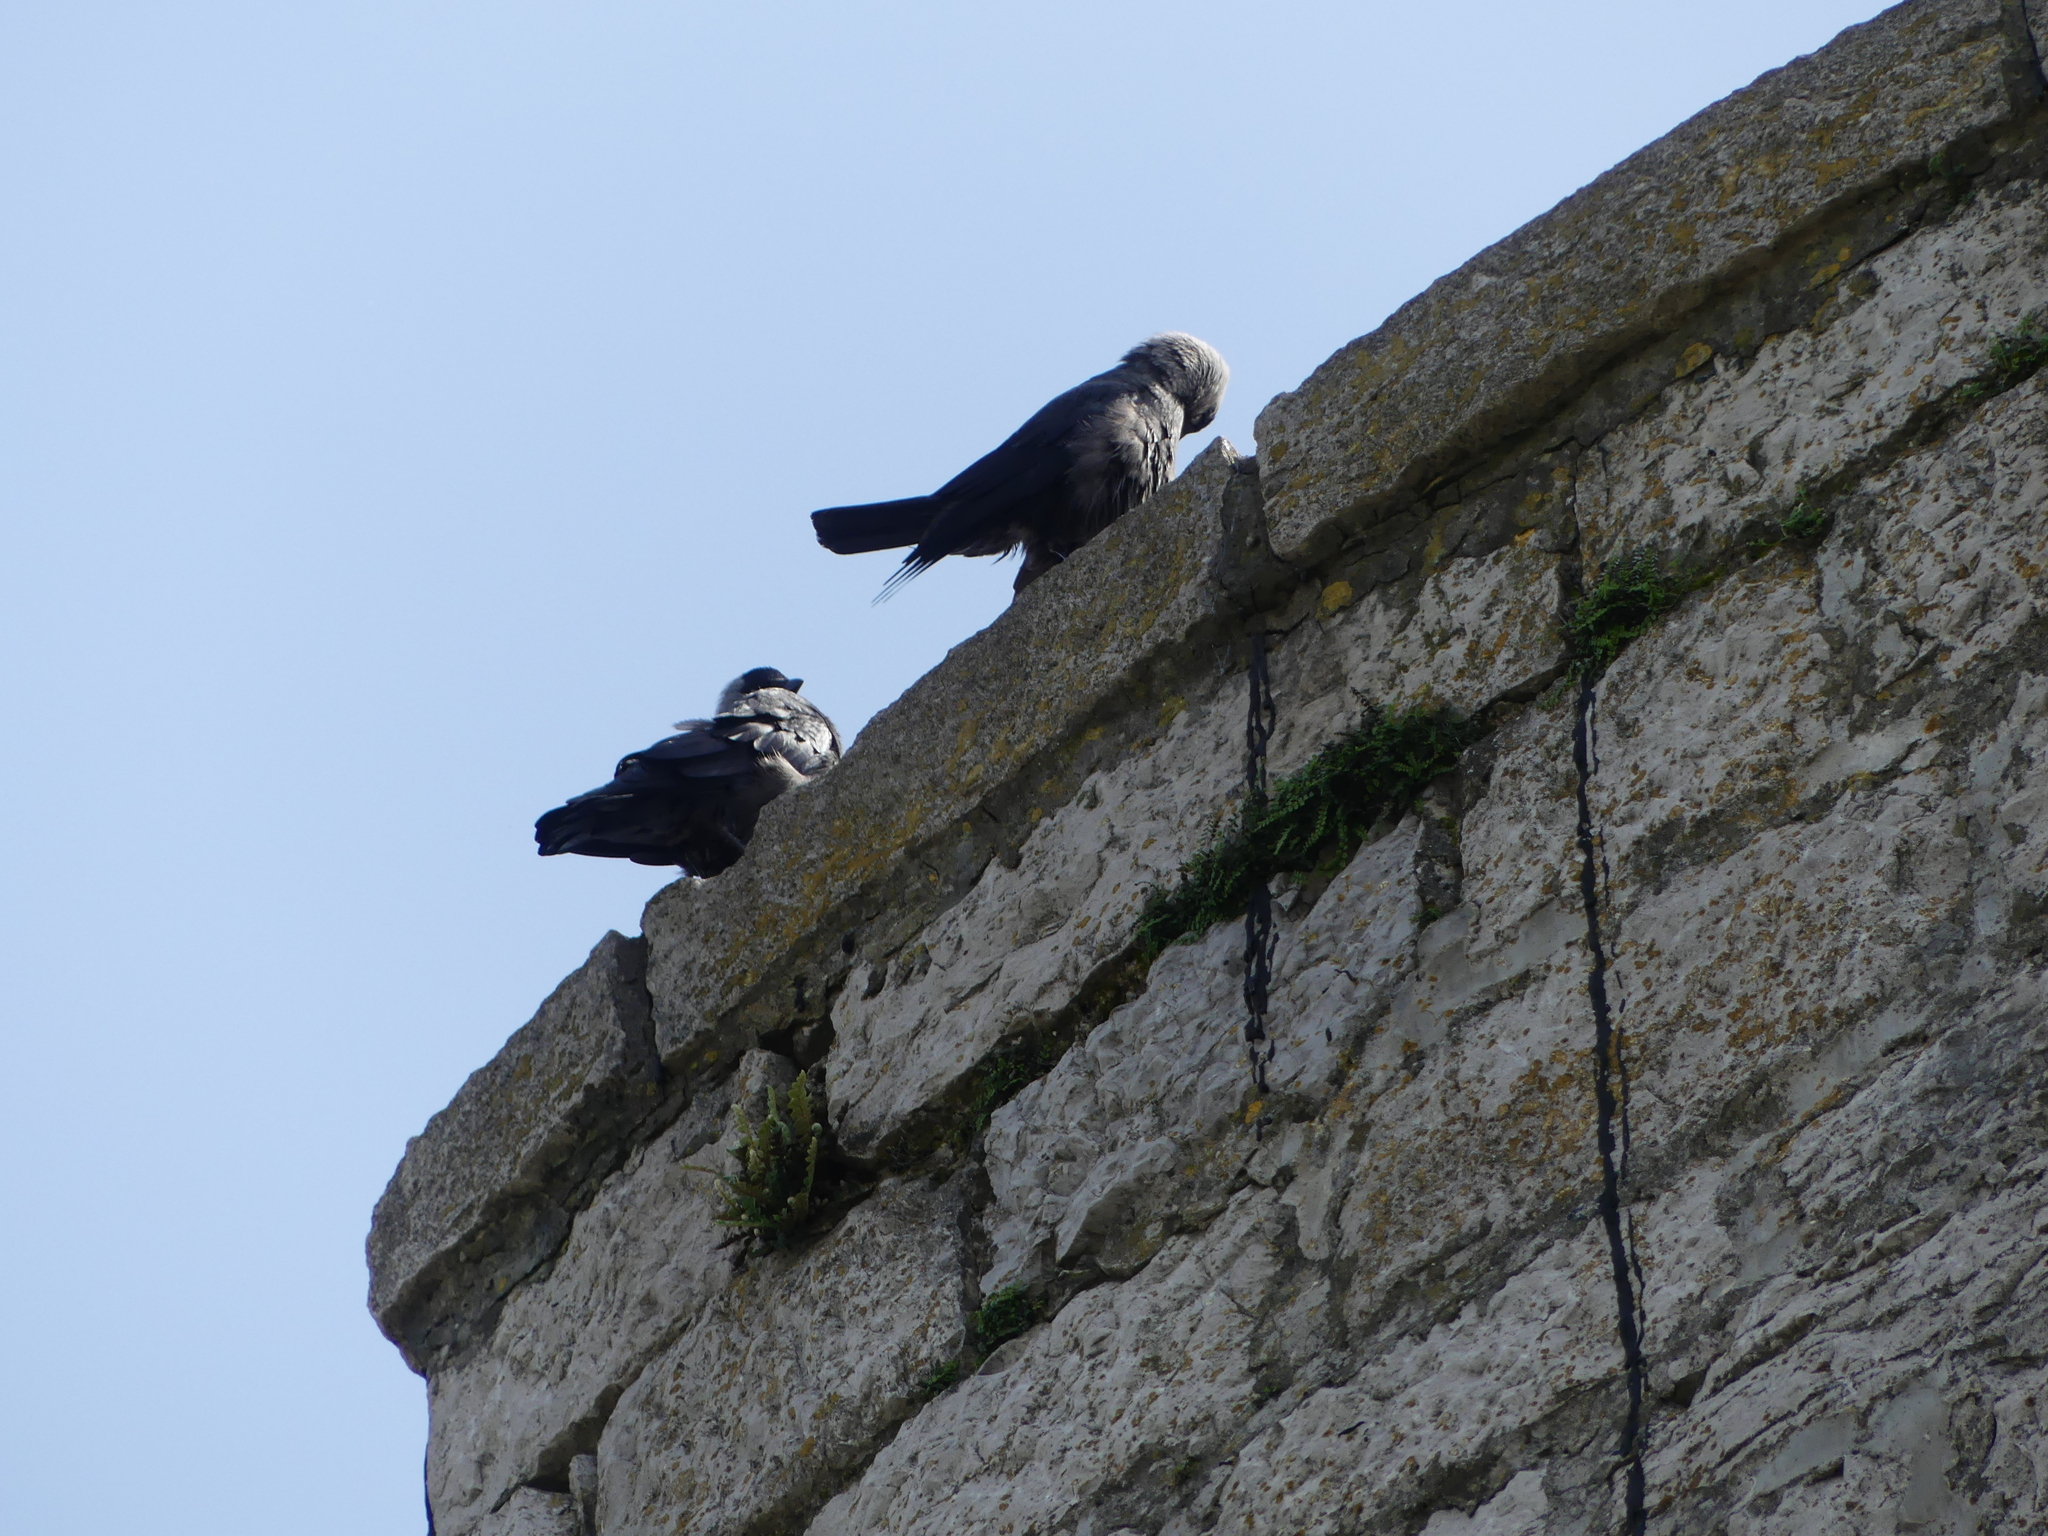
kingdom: Animalia
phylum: Chordata
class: Aves
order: Passeriformes
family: Corvidae
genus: Coloeus
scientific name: Coloeus monedula
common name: Western jackdaw
